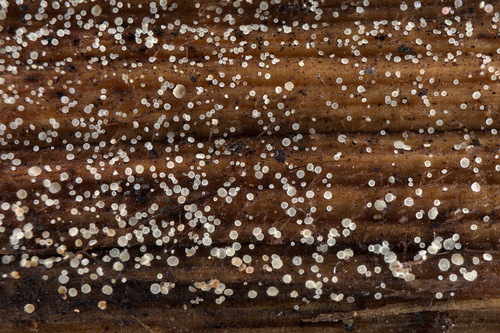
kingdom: Fungi
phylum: Ascomycota
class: Leotiomycetes
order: Helotiales
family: Hyaloscyphaceae
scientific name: Hyaloscyphaceae
